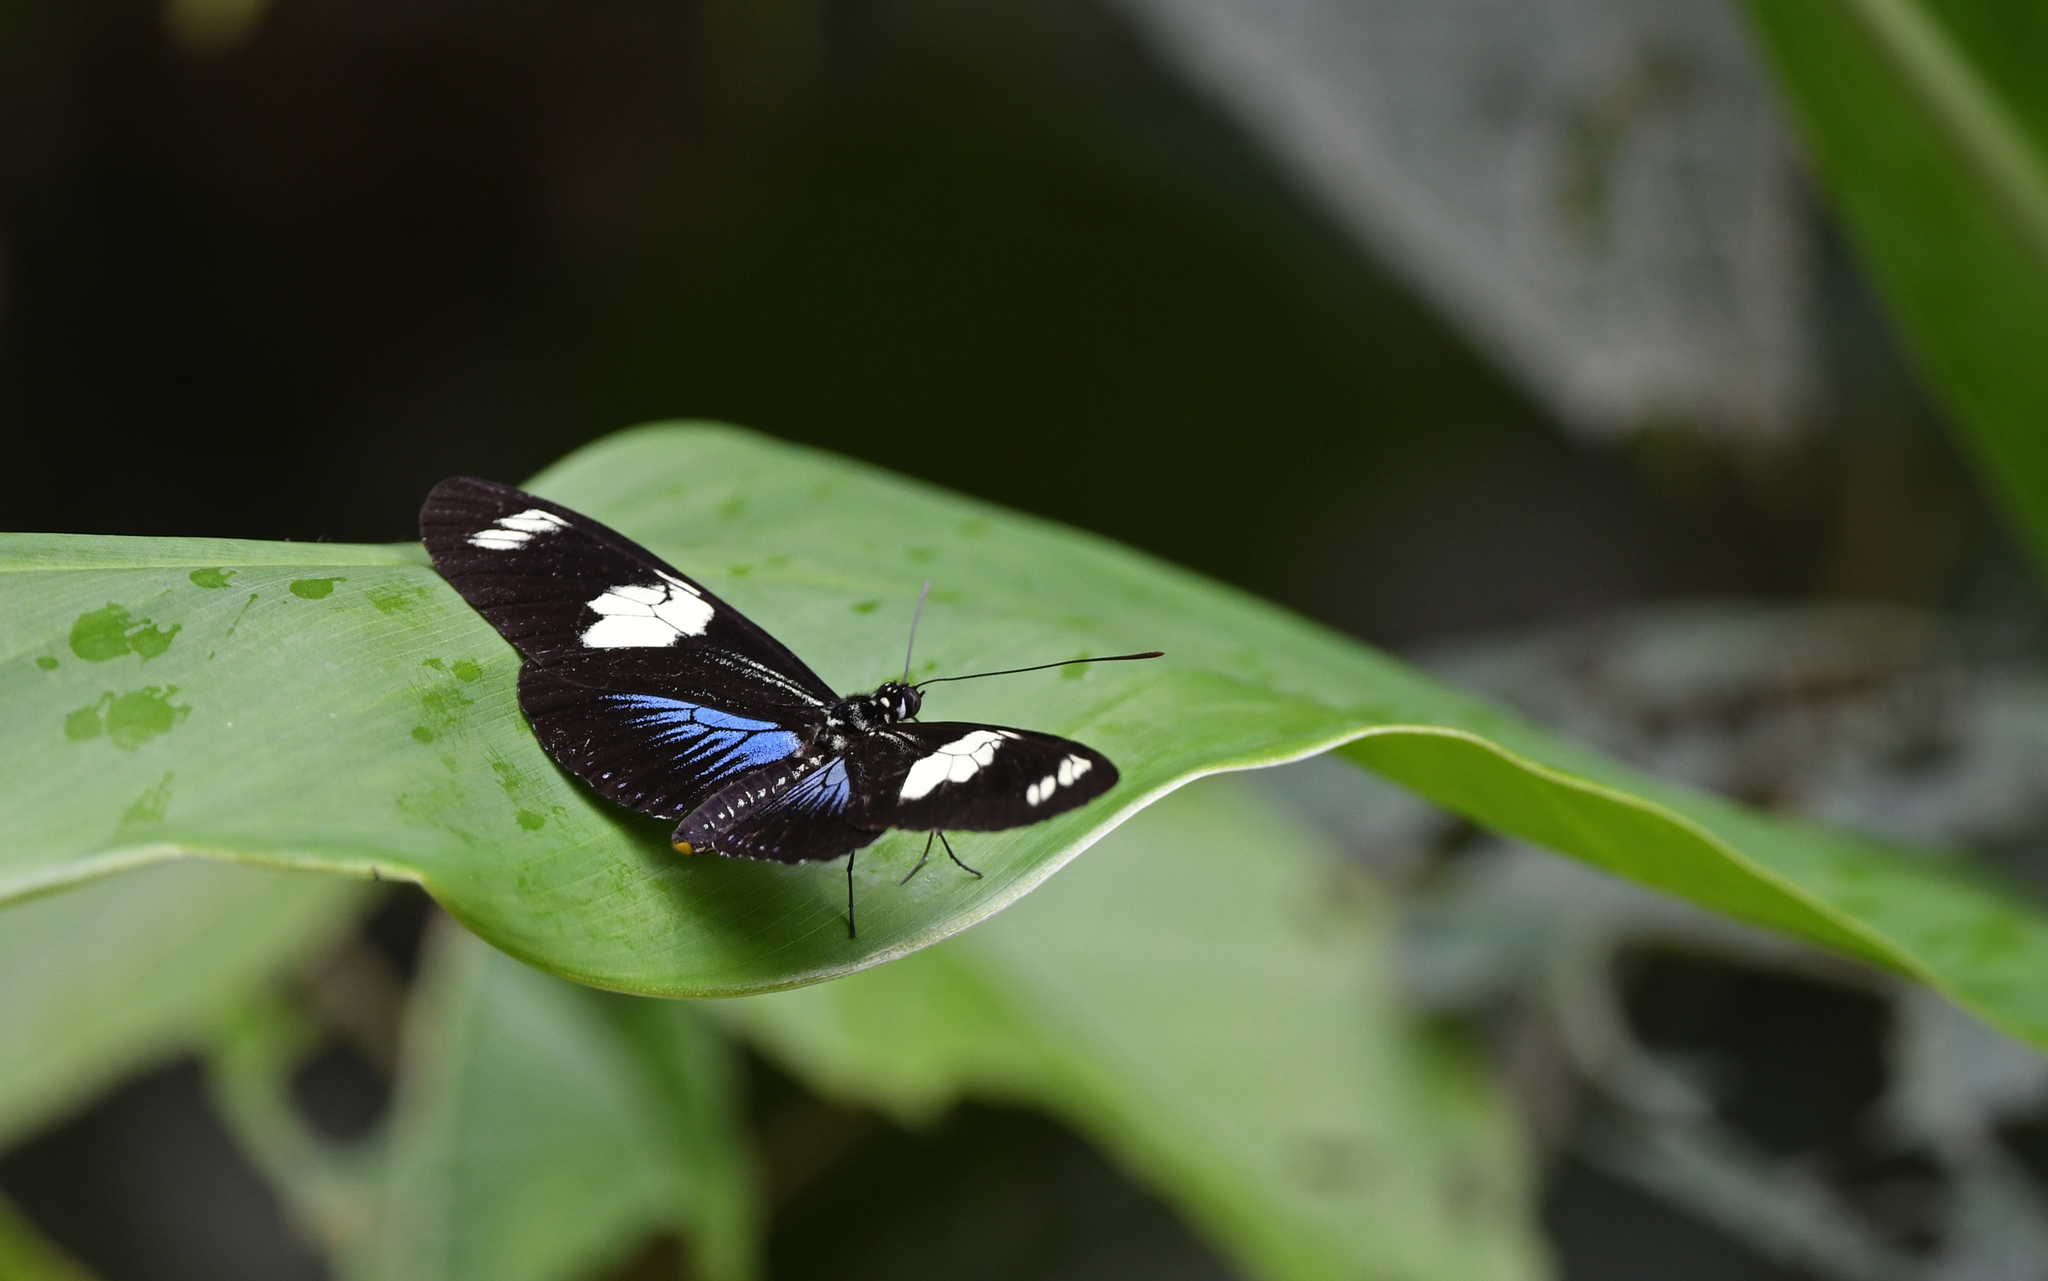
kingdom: Animalia
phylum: Arthropoda
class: Insecta
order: Lepidoptera
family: Nymphalidae
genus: Heliconius
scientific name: Heliconius doris
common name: Doris longwing
